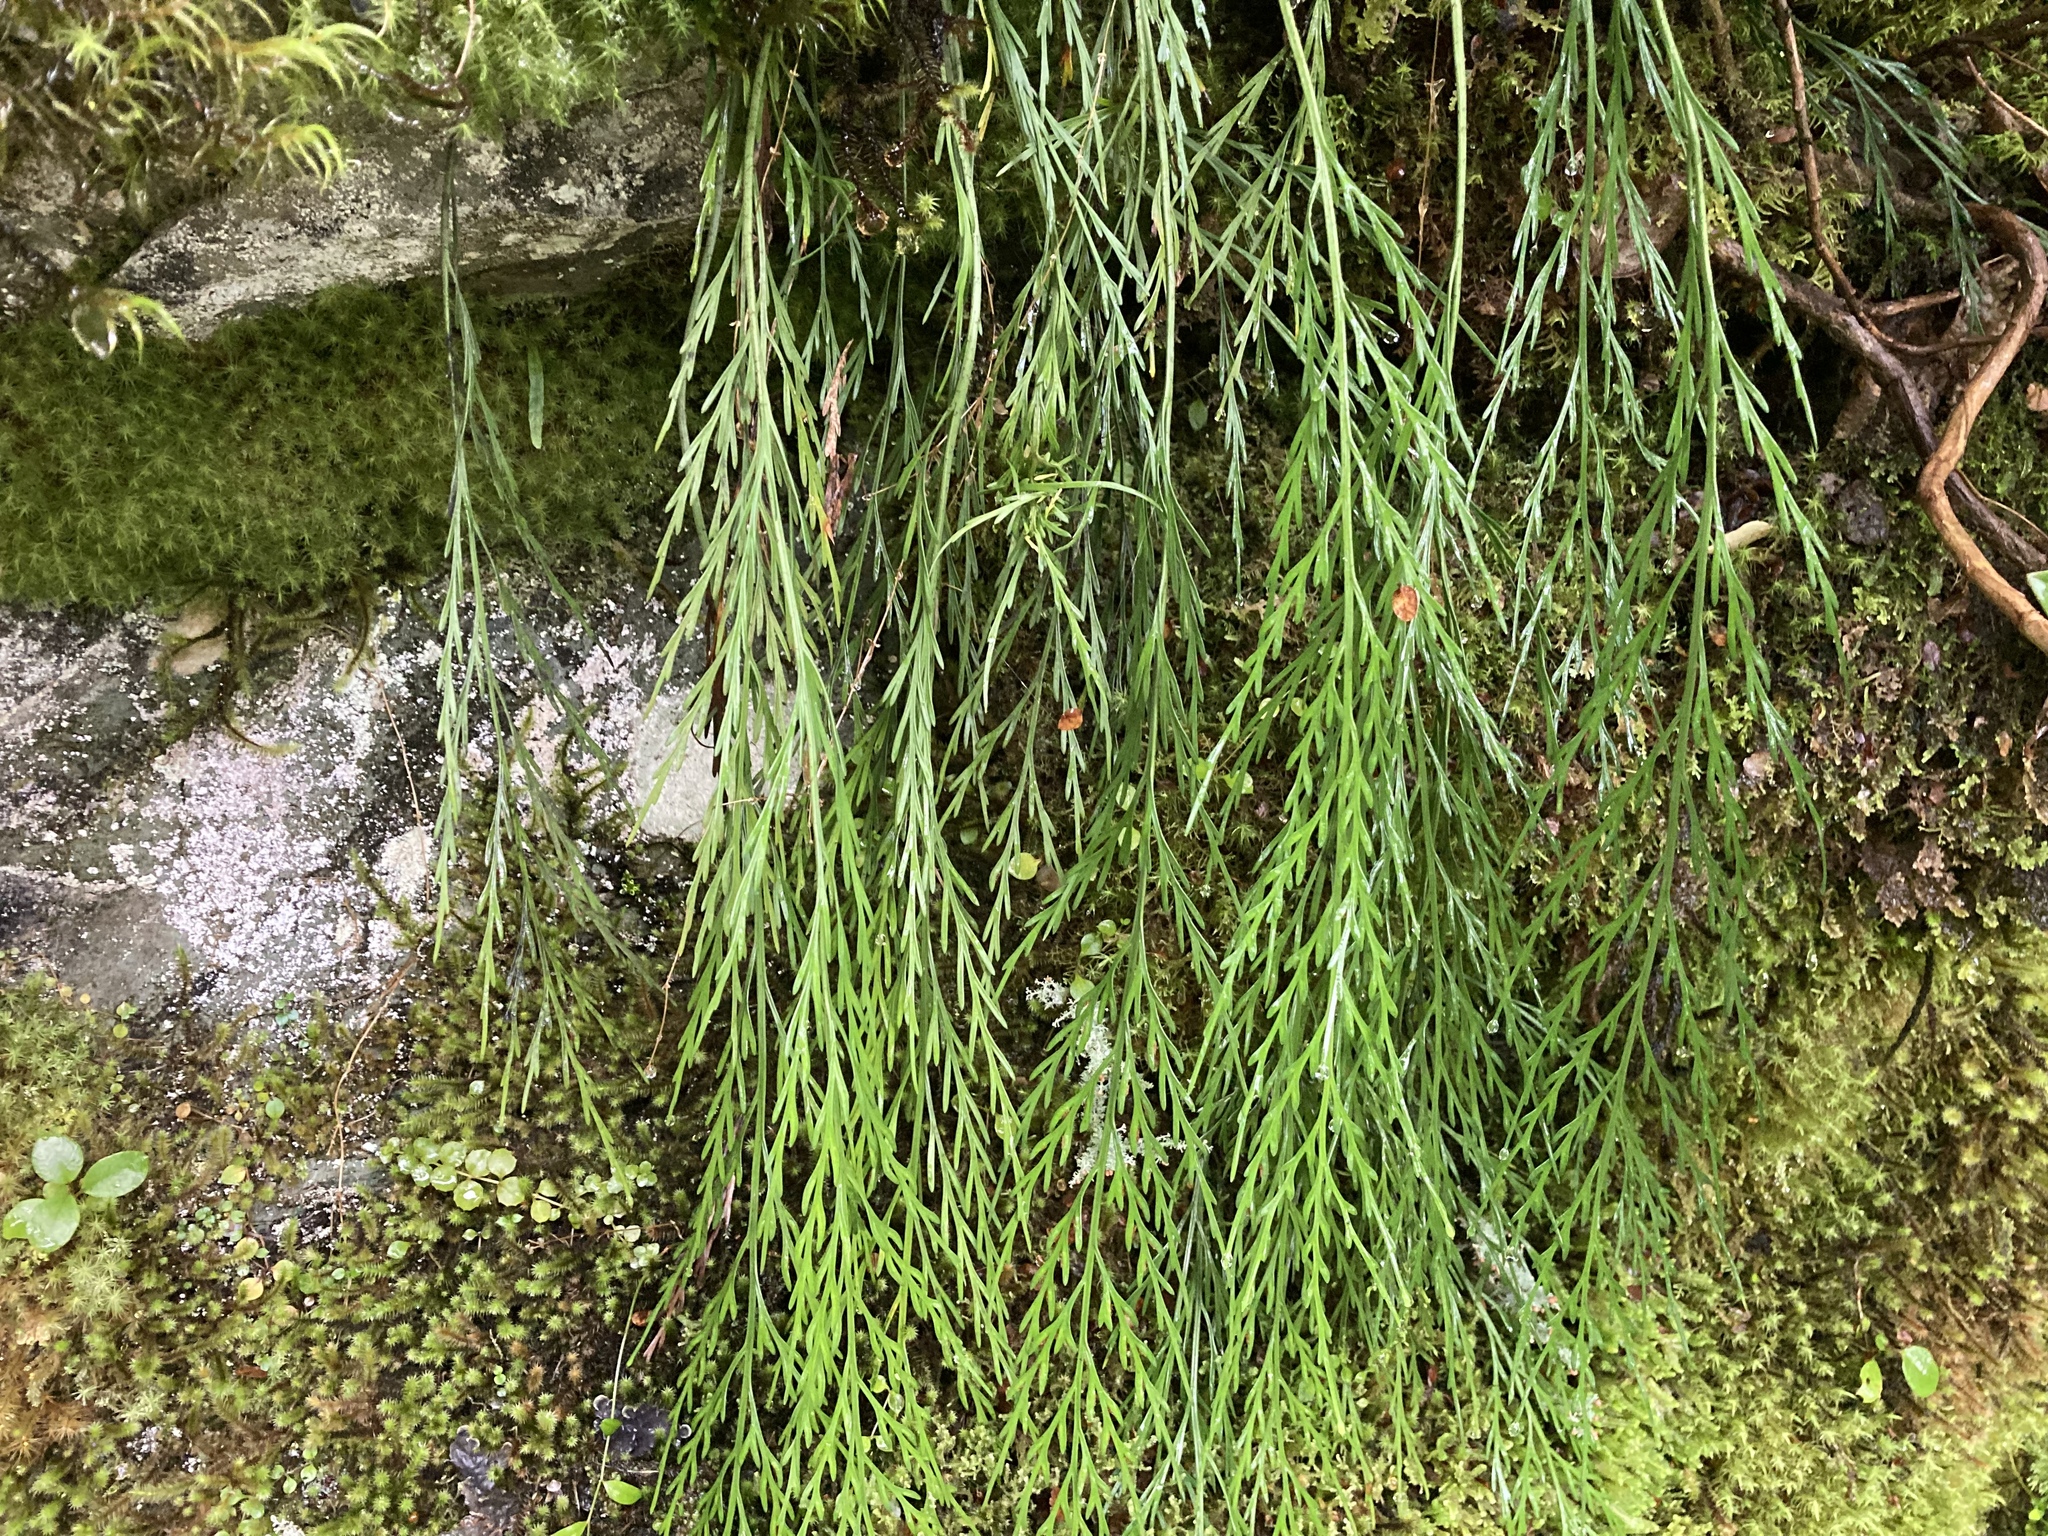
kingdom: Plantae
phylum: Tracheophyta
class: Polypodiopsida
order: Polypodiales
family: Aspleniaceae
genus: Asplenium
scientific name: Asplenium flaccidum
